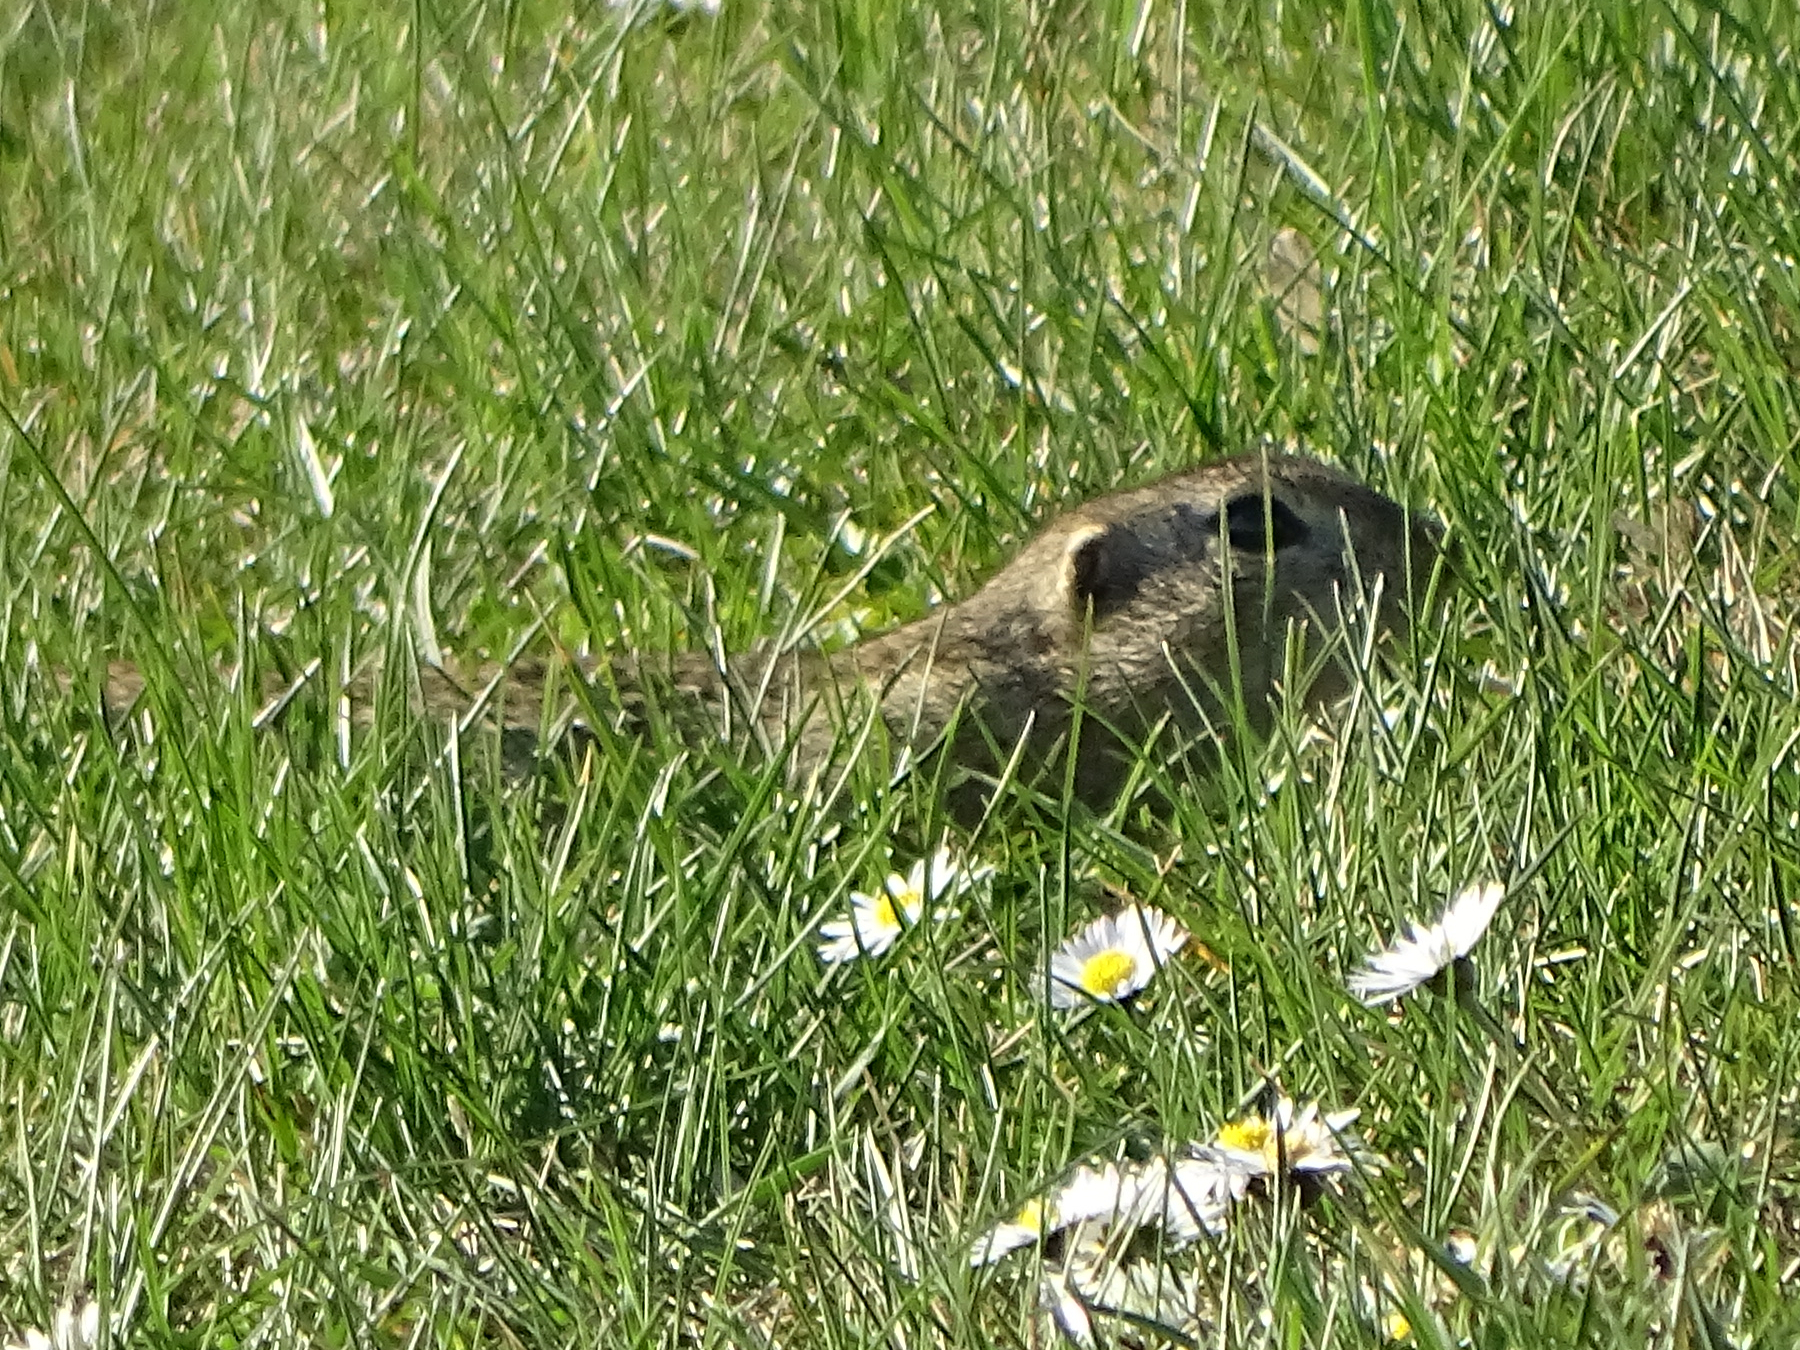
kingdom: Animalia
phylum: Chordata
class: Mammalia
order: Rodentia
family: Sciuridae
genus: Spermophilus
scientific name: Spermophilus citellus
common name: European ground squirrel
